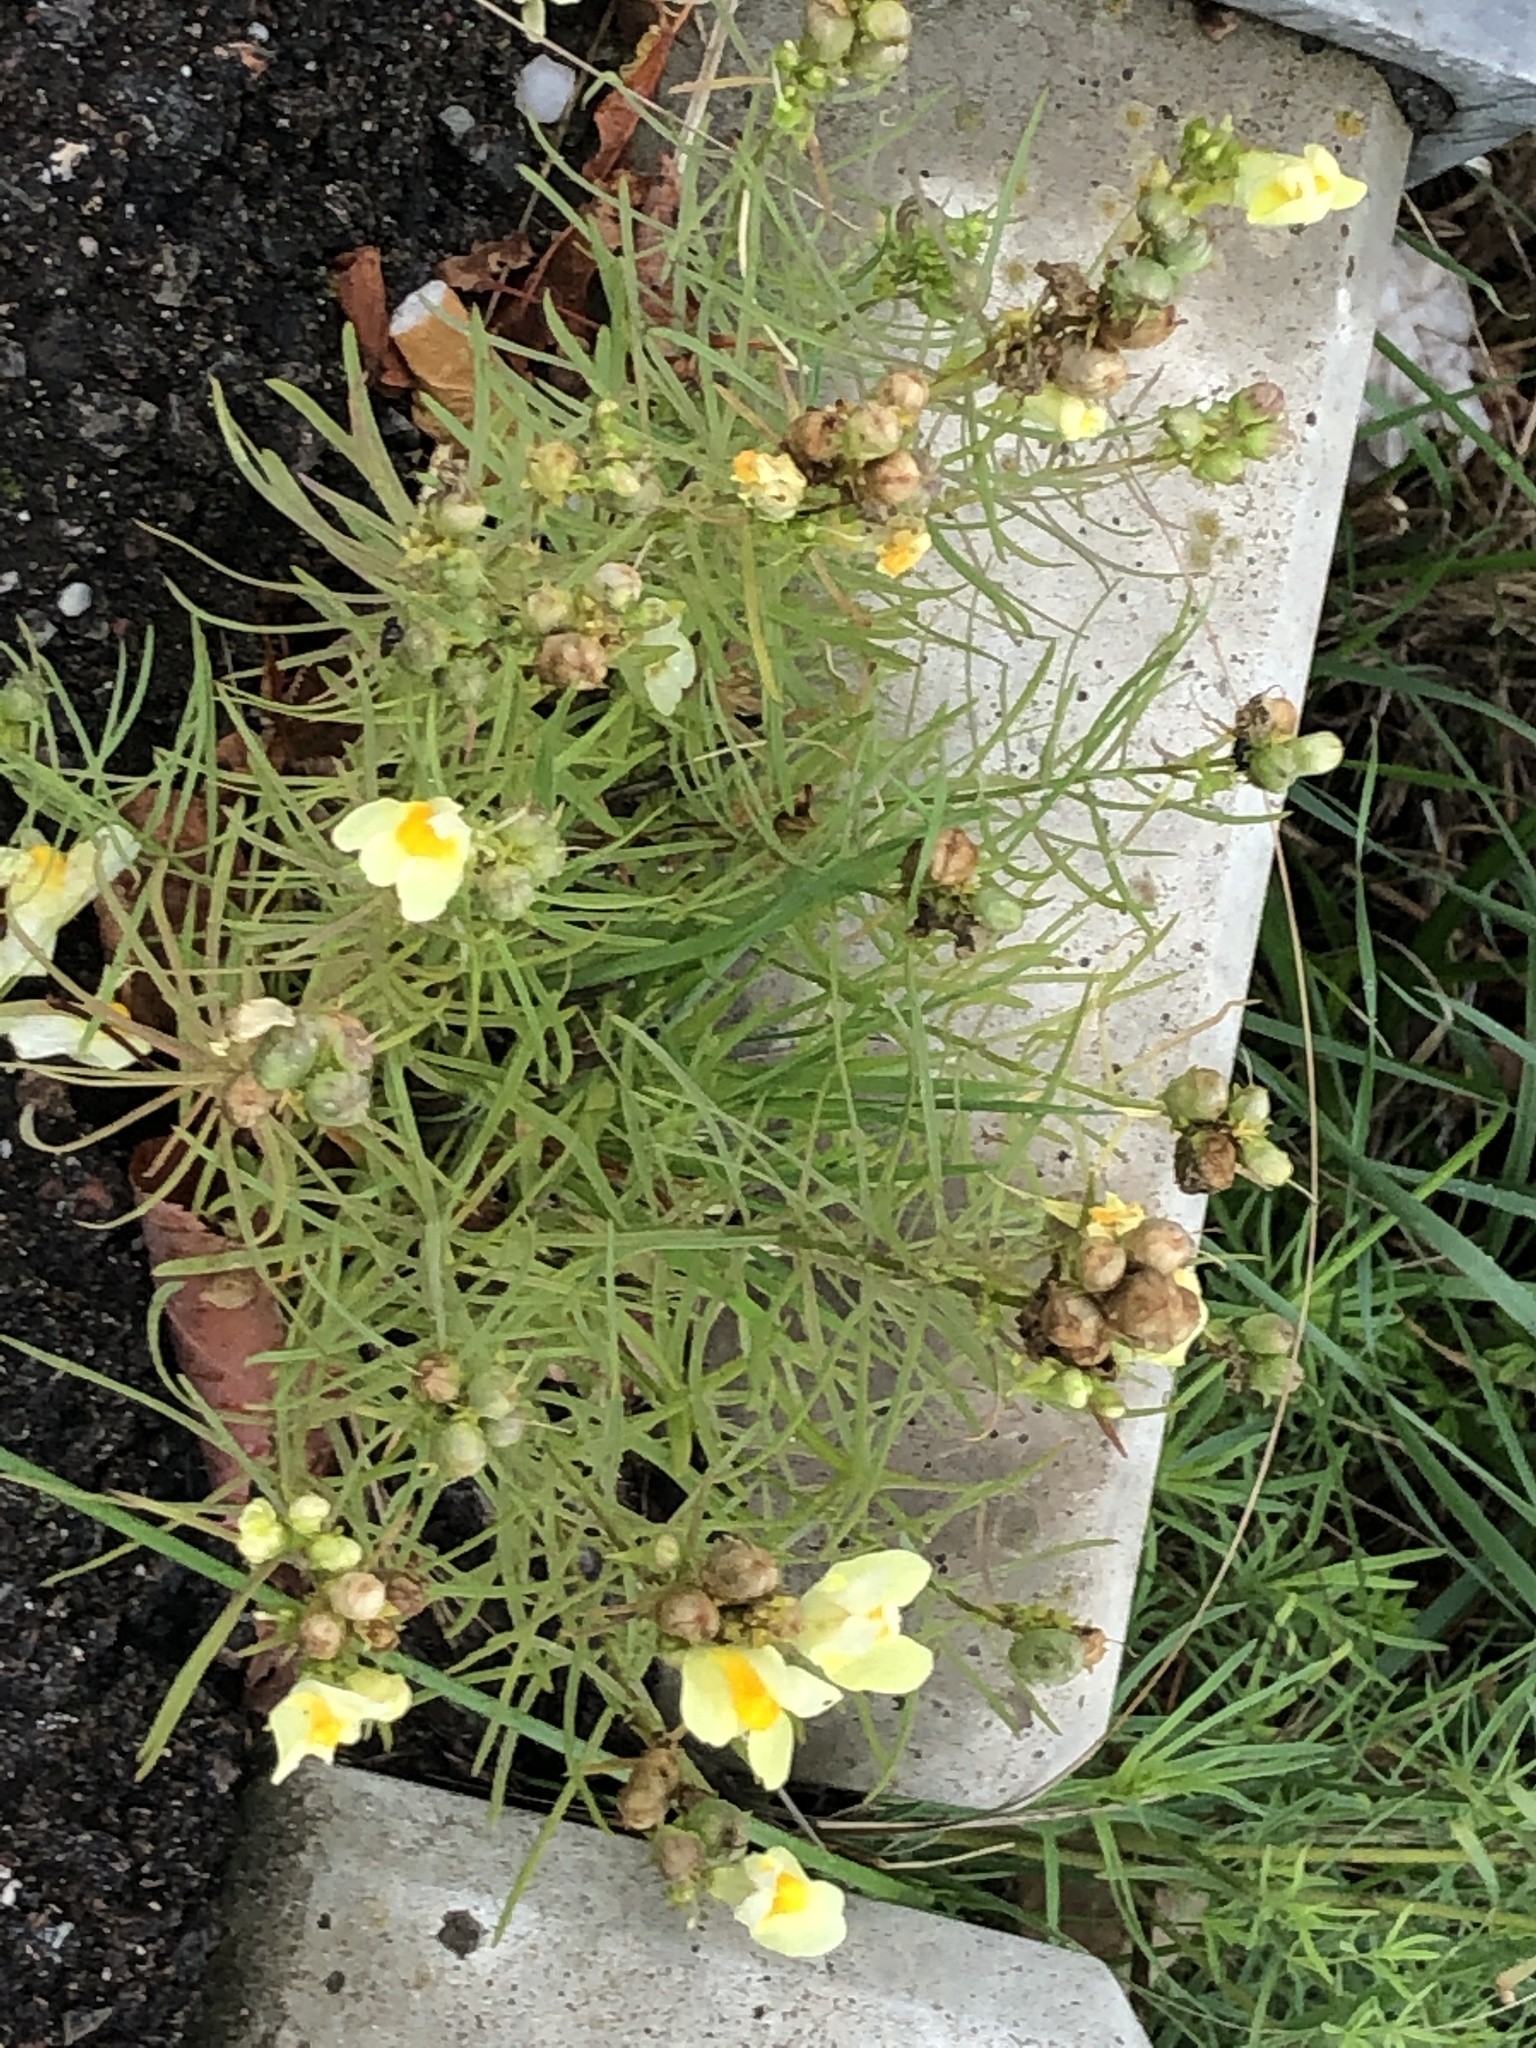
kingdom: Plantae
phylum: Tracheophyta
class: Magnoliopsida
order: Lamiales
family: Plantaginaceae
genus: Linaria
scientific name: Linaria vulgaris
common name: Butter and eggs
